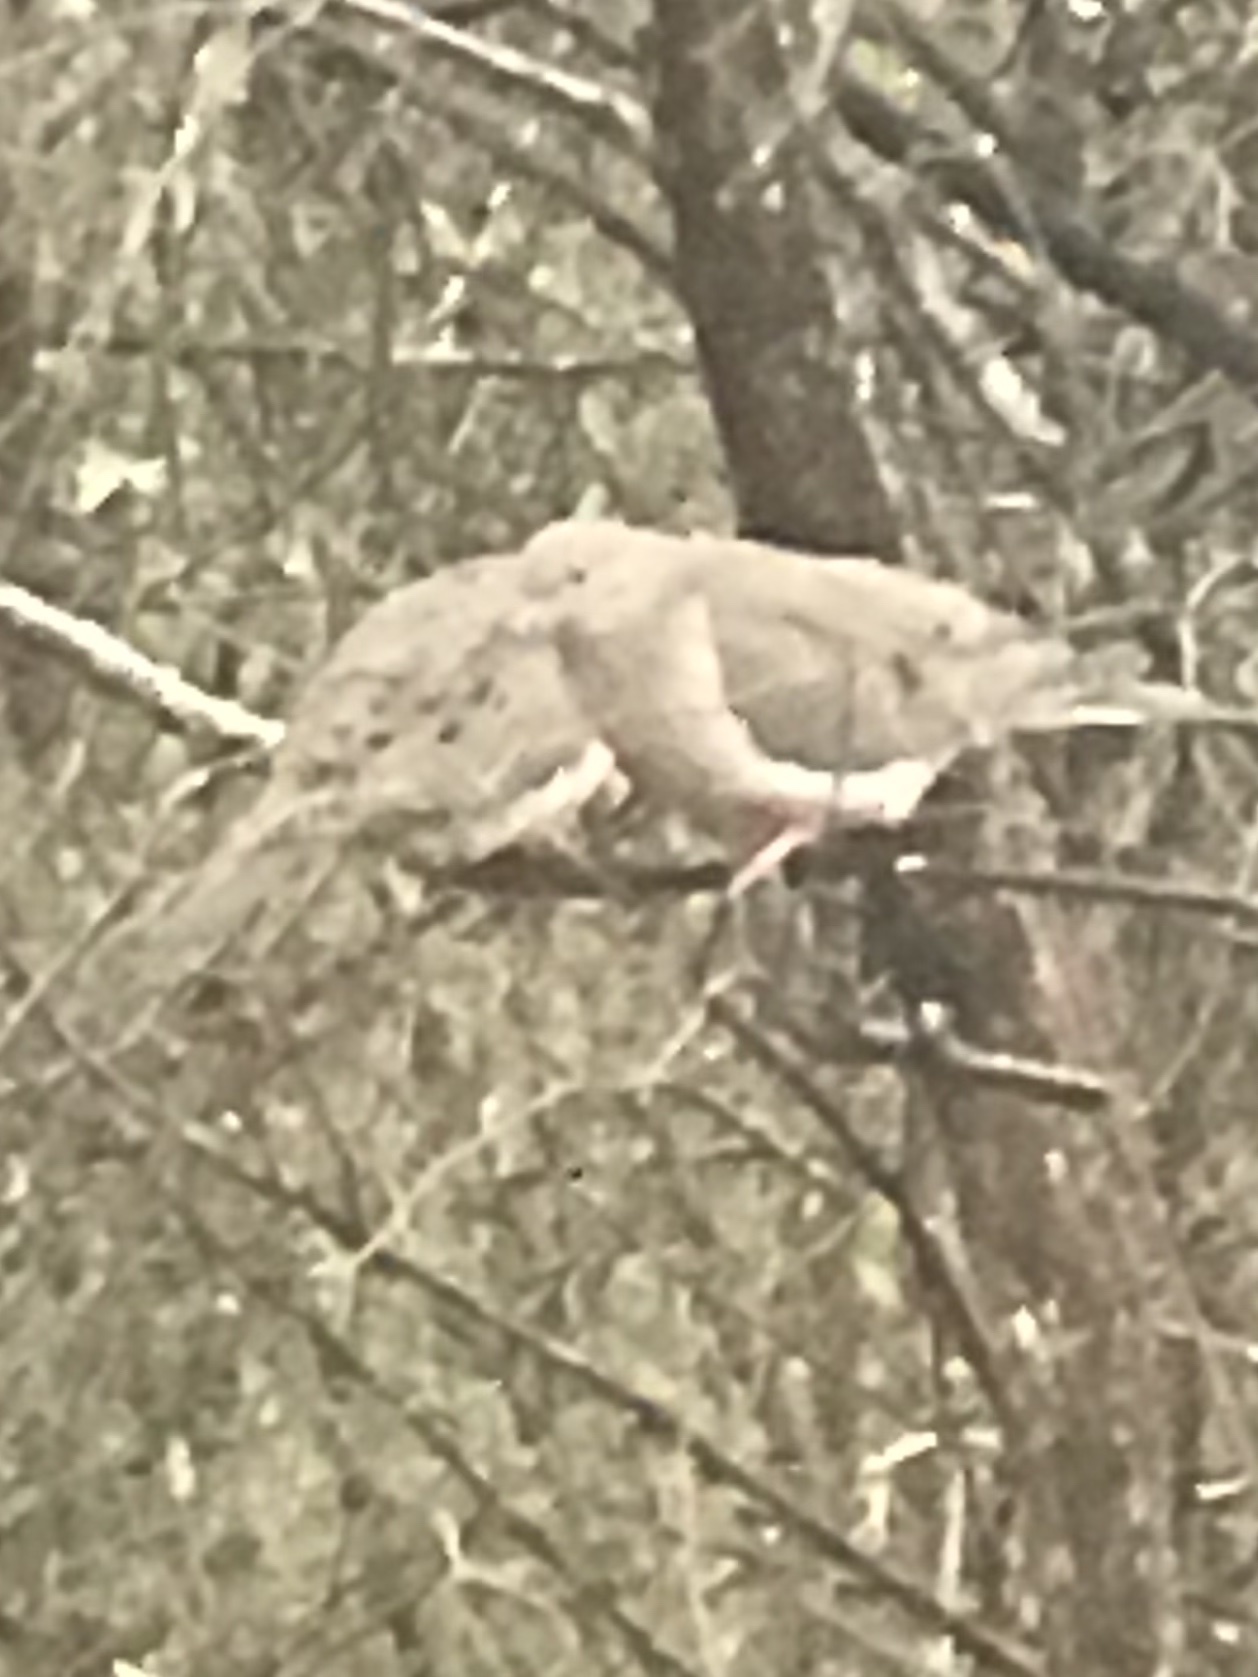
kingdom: Animalia
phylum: Chordata
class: Aves
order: Columbiformes
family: Columbidae
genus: Zenaida
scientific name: Zenaida macroura
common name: Mourning dove
